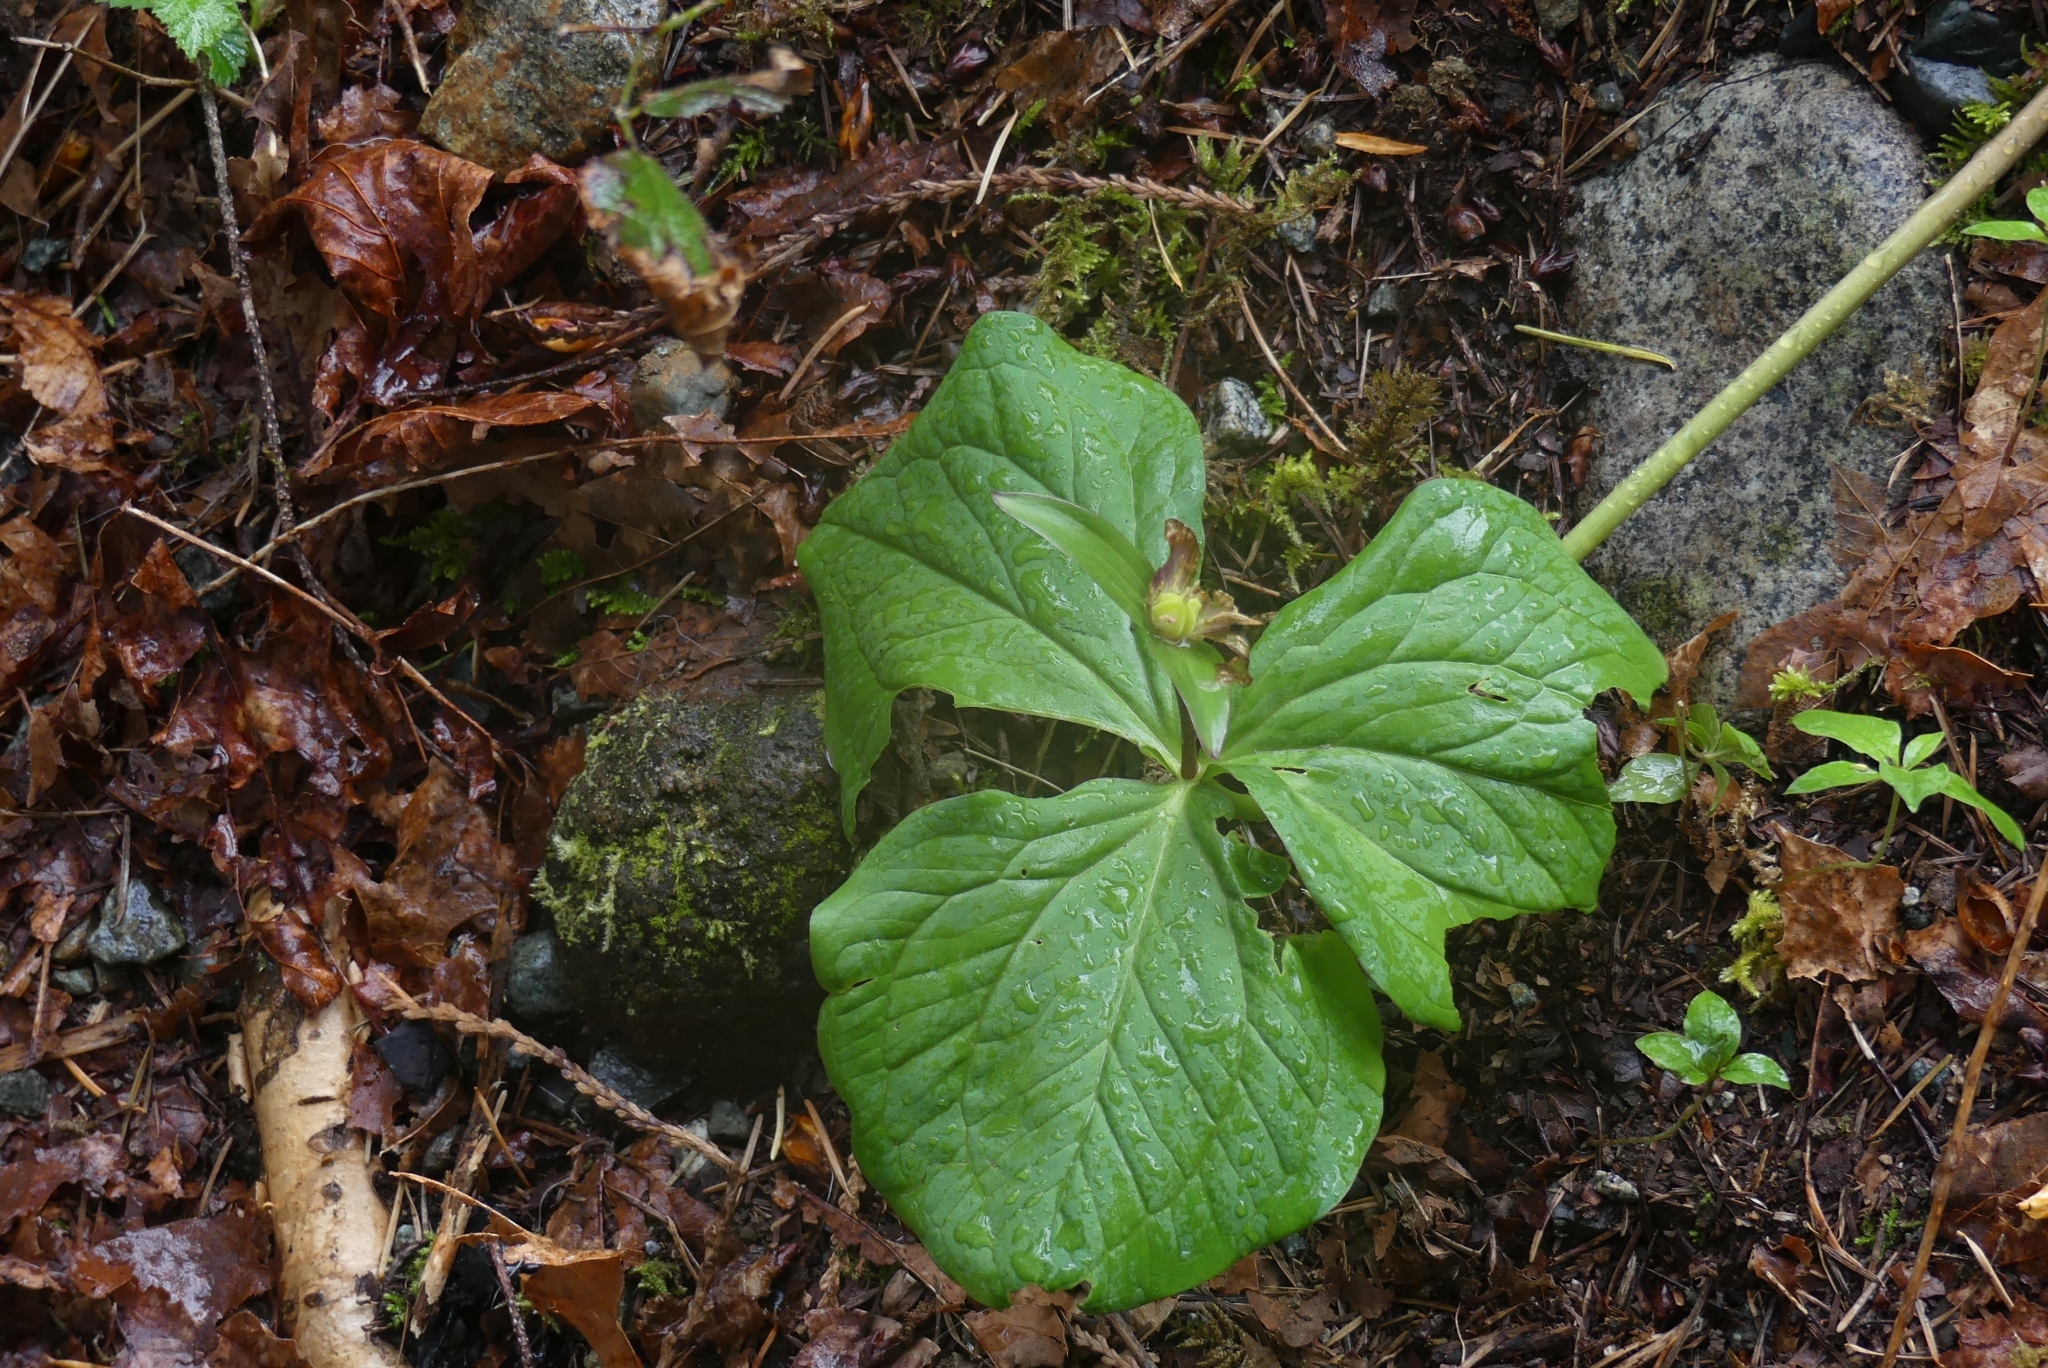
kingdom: Plantae
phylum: Tracheophyta
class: Liliopsida
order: Liliales
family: Melanthiaceae
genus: Trillium
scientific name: Trillium ovatum
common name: Pacific trillium
